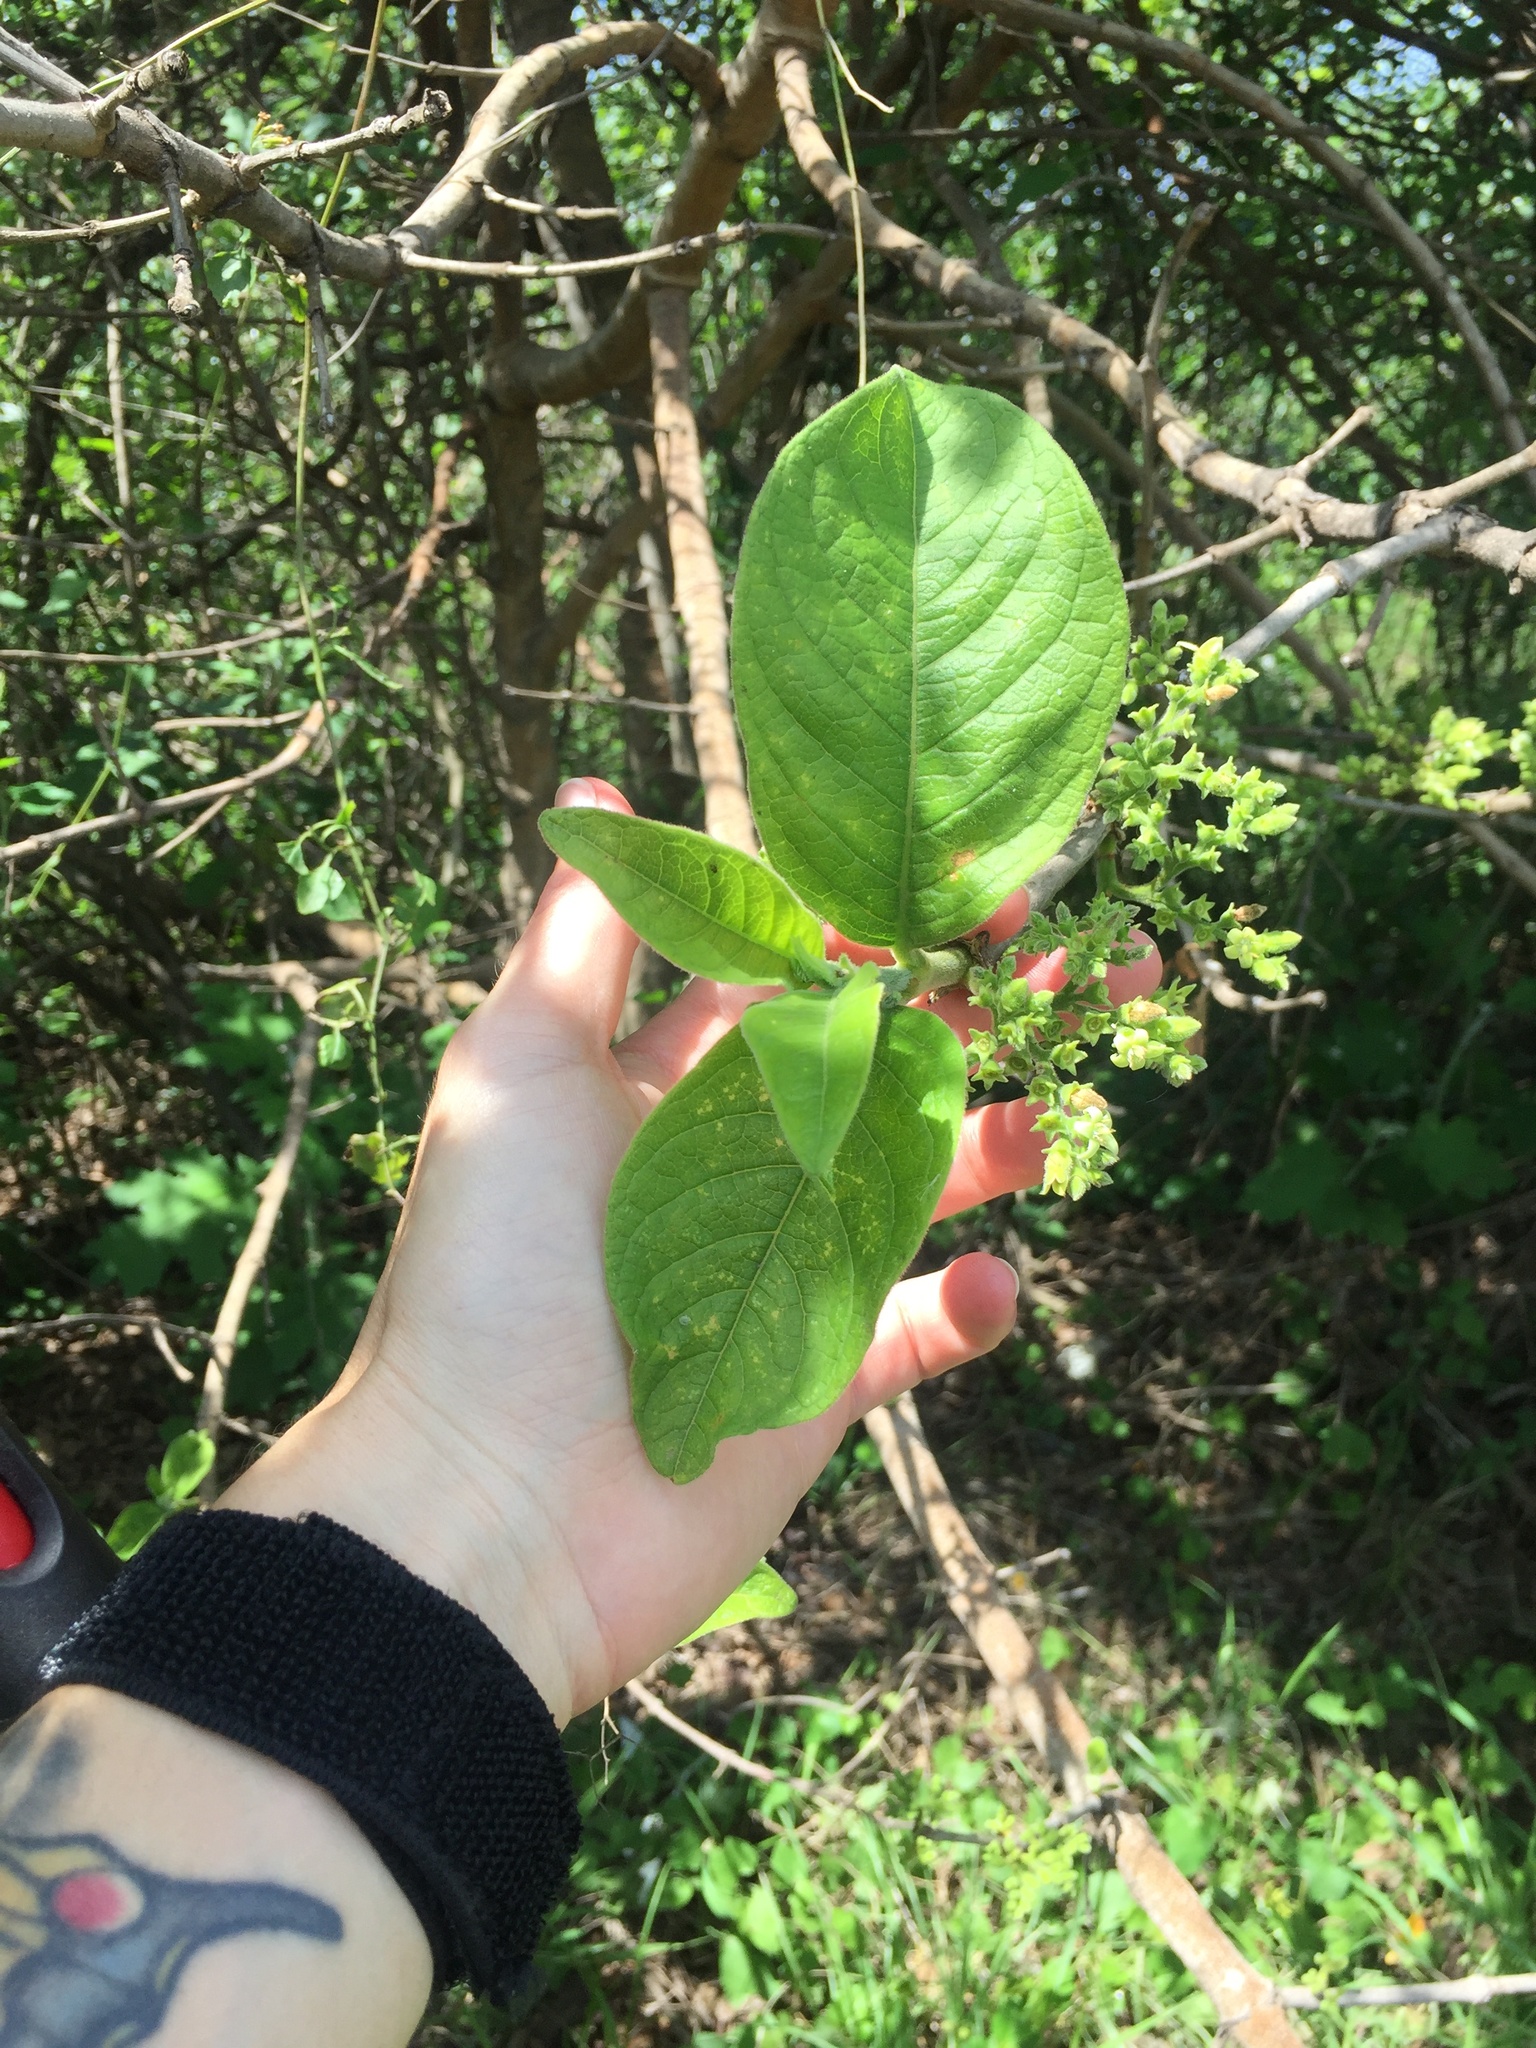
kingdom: Plantae
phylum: Tracheophyta
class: Magnoliopsida
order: Gentianales
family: Rubiaceae
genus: Vangueria
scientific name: Vangueria infausta
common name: Medlar
